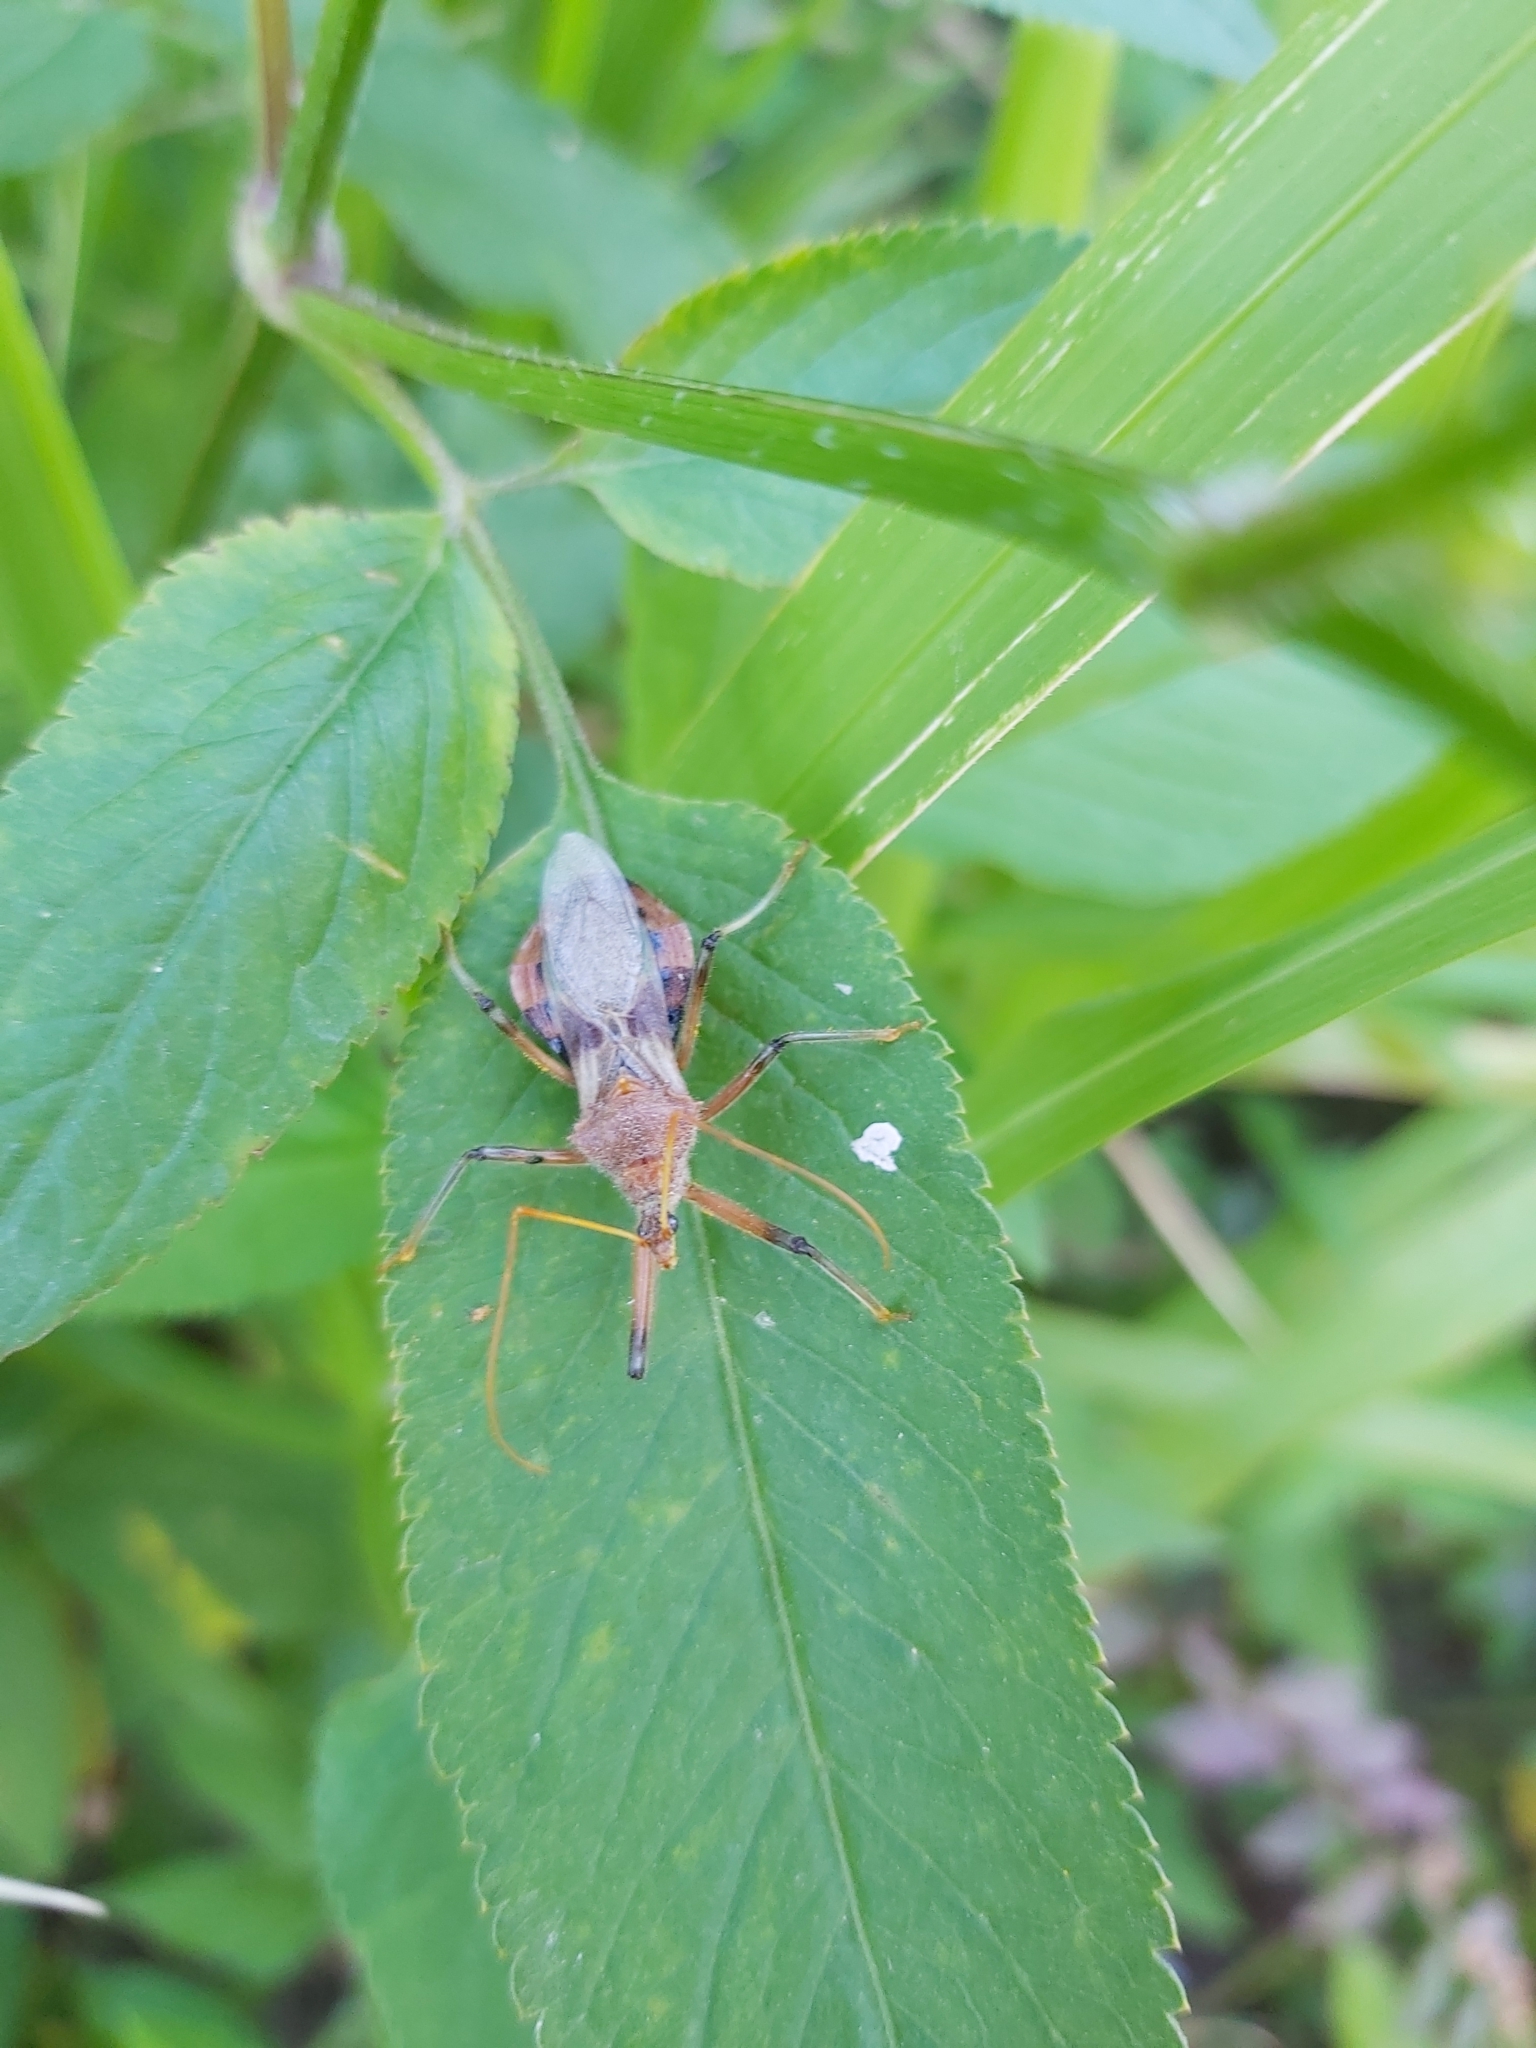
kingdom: Animalia
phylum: Arthropoda
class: Insecta
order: Hemiptera
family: Reduviidae
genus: Pristhesancus
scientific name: Pristhesancus plagipennis
